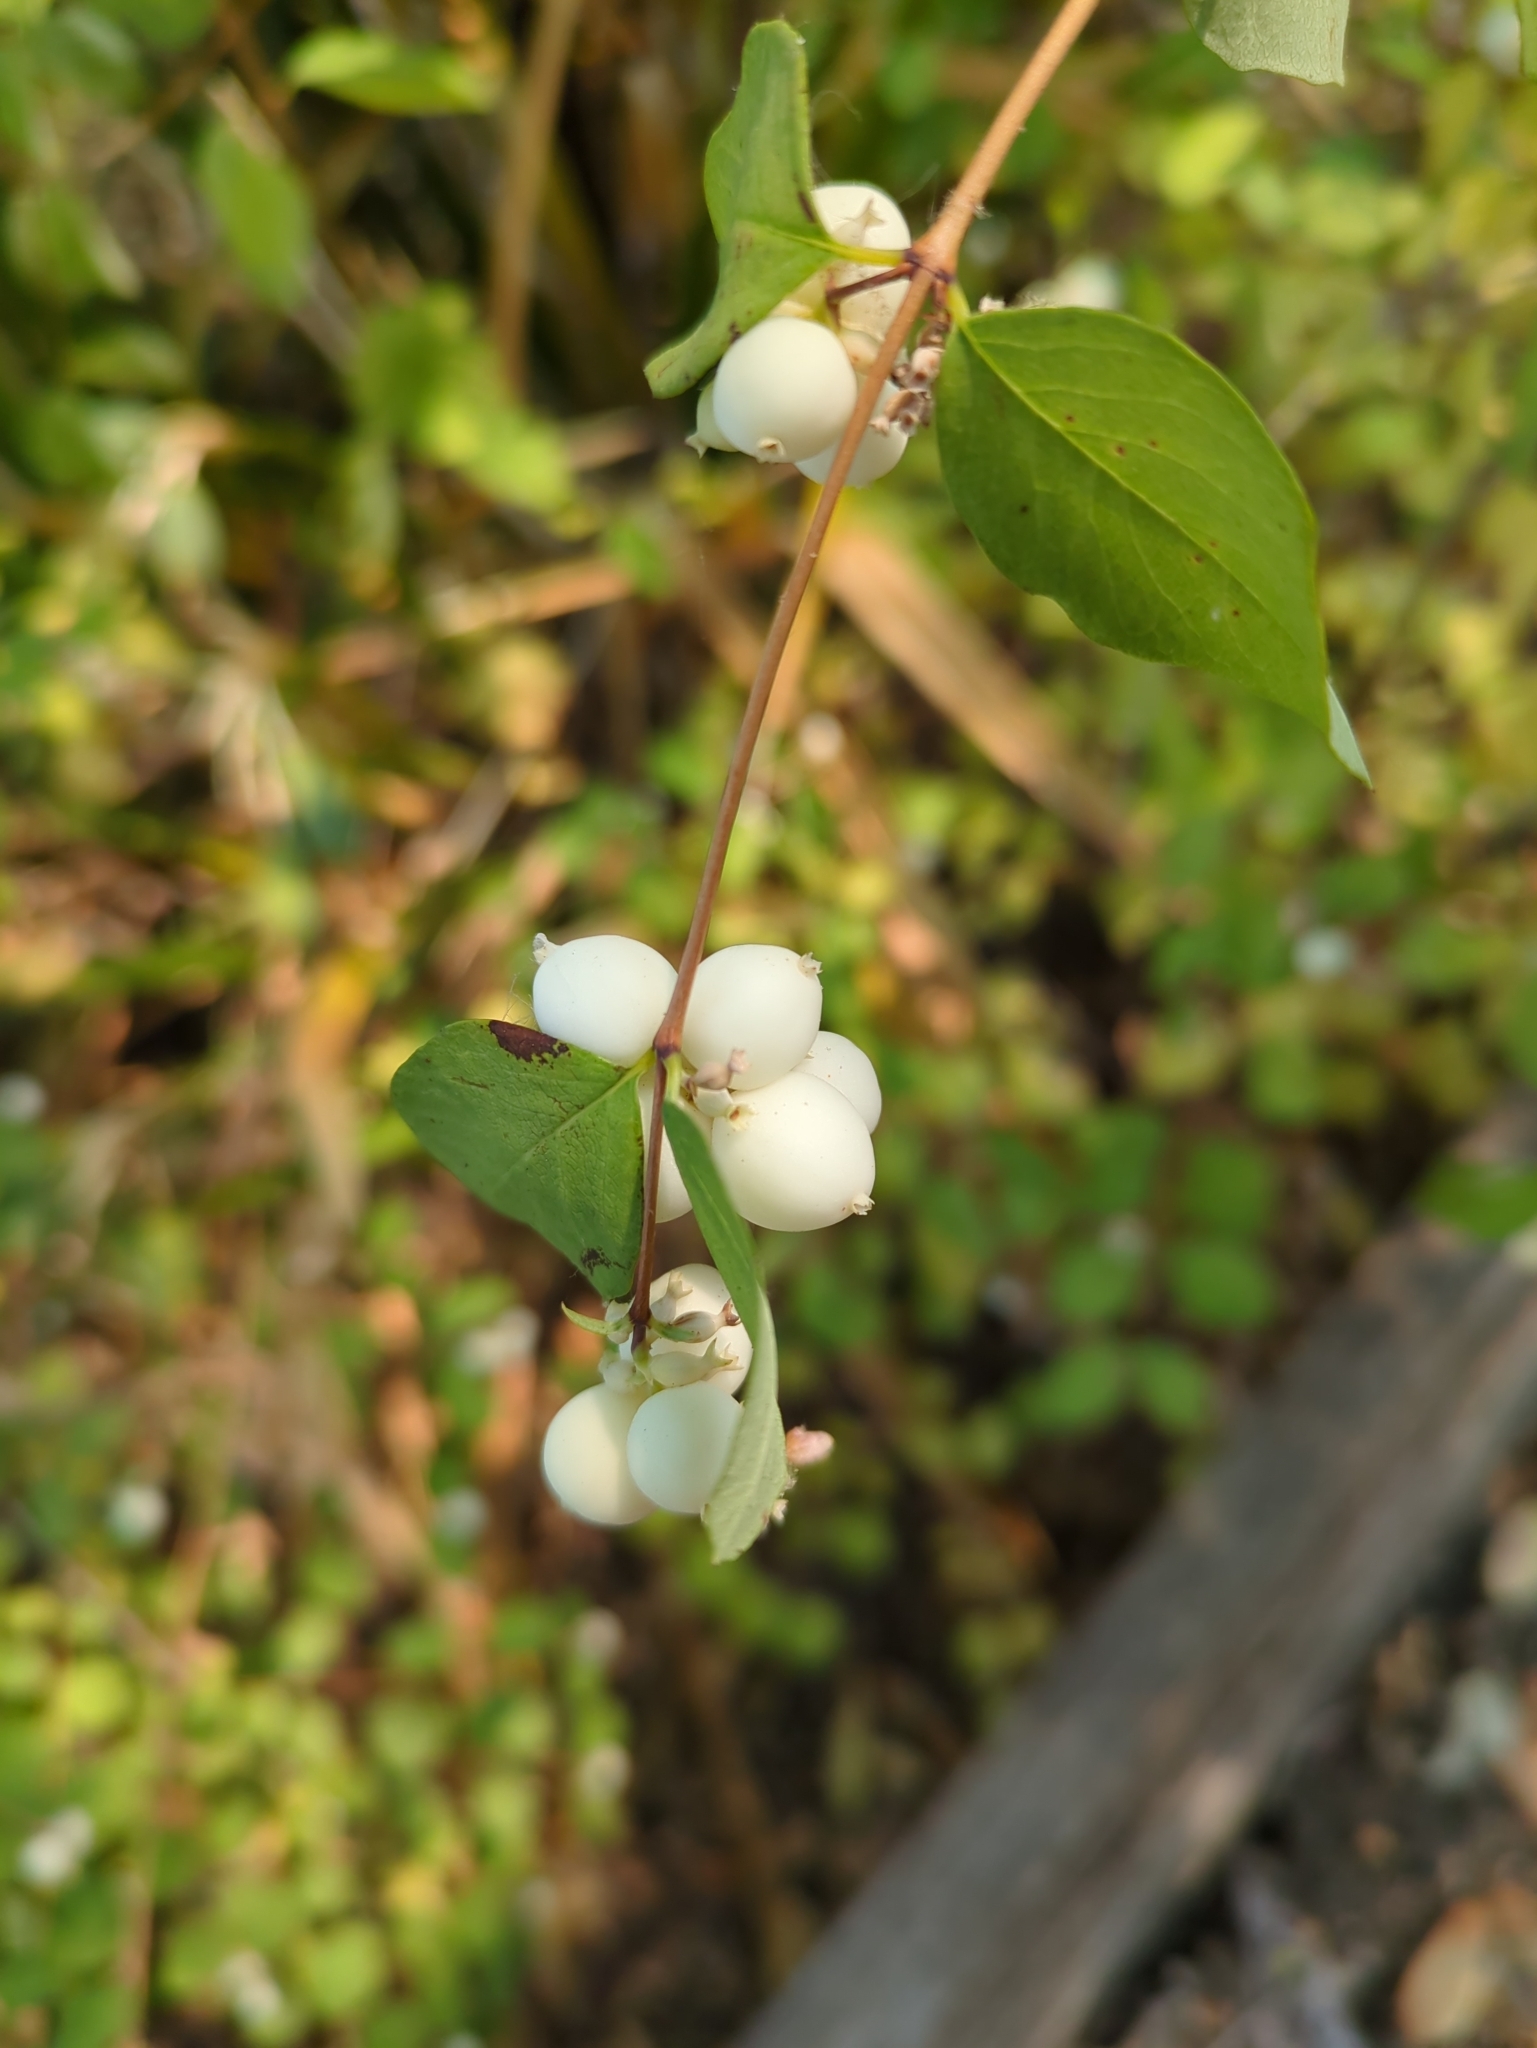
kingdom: Plantae
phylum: Tracheophyta
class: Magnoliopsida
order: Dipsacales
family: Caprifoliaceae
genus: Symphoricarpos
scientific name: Symphoricarpos albus
